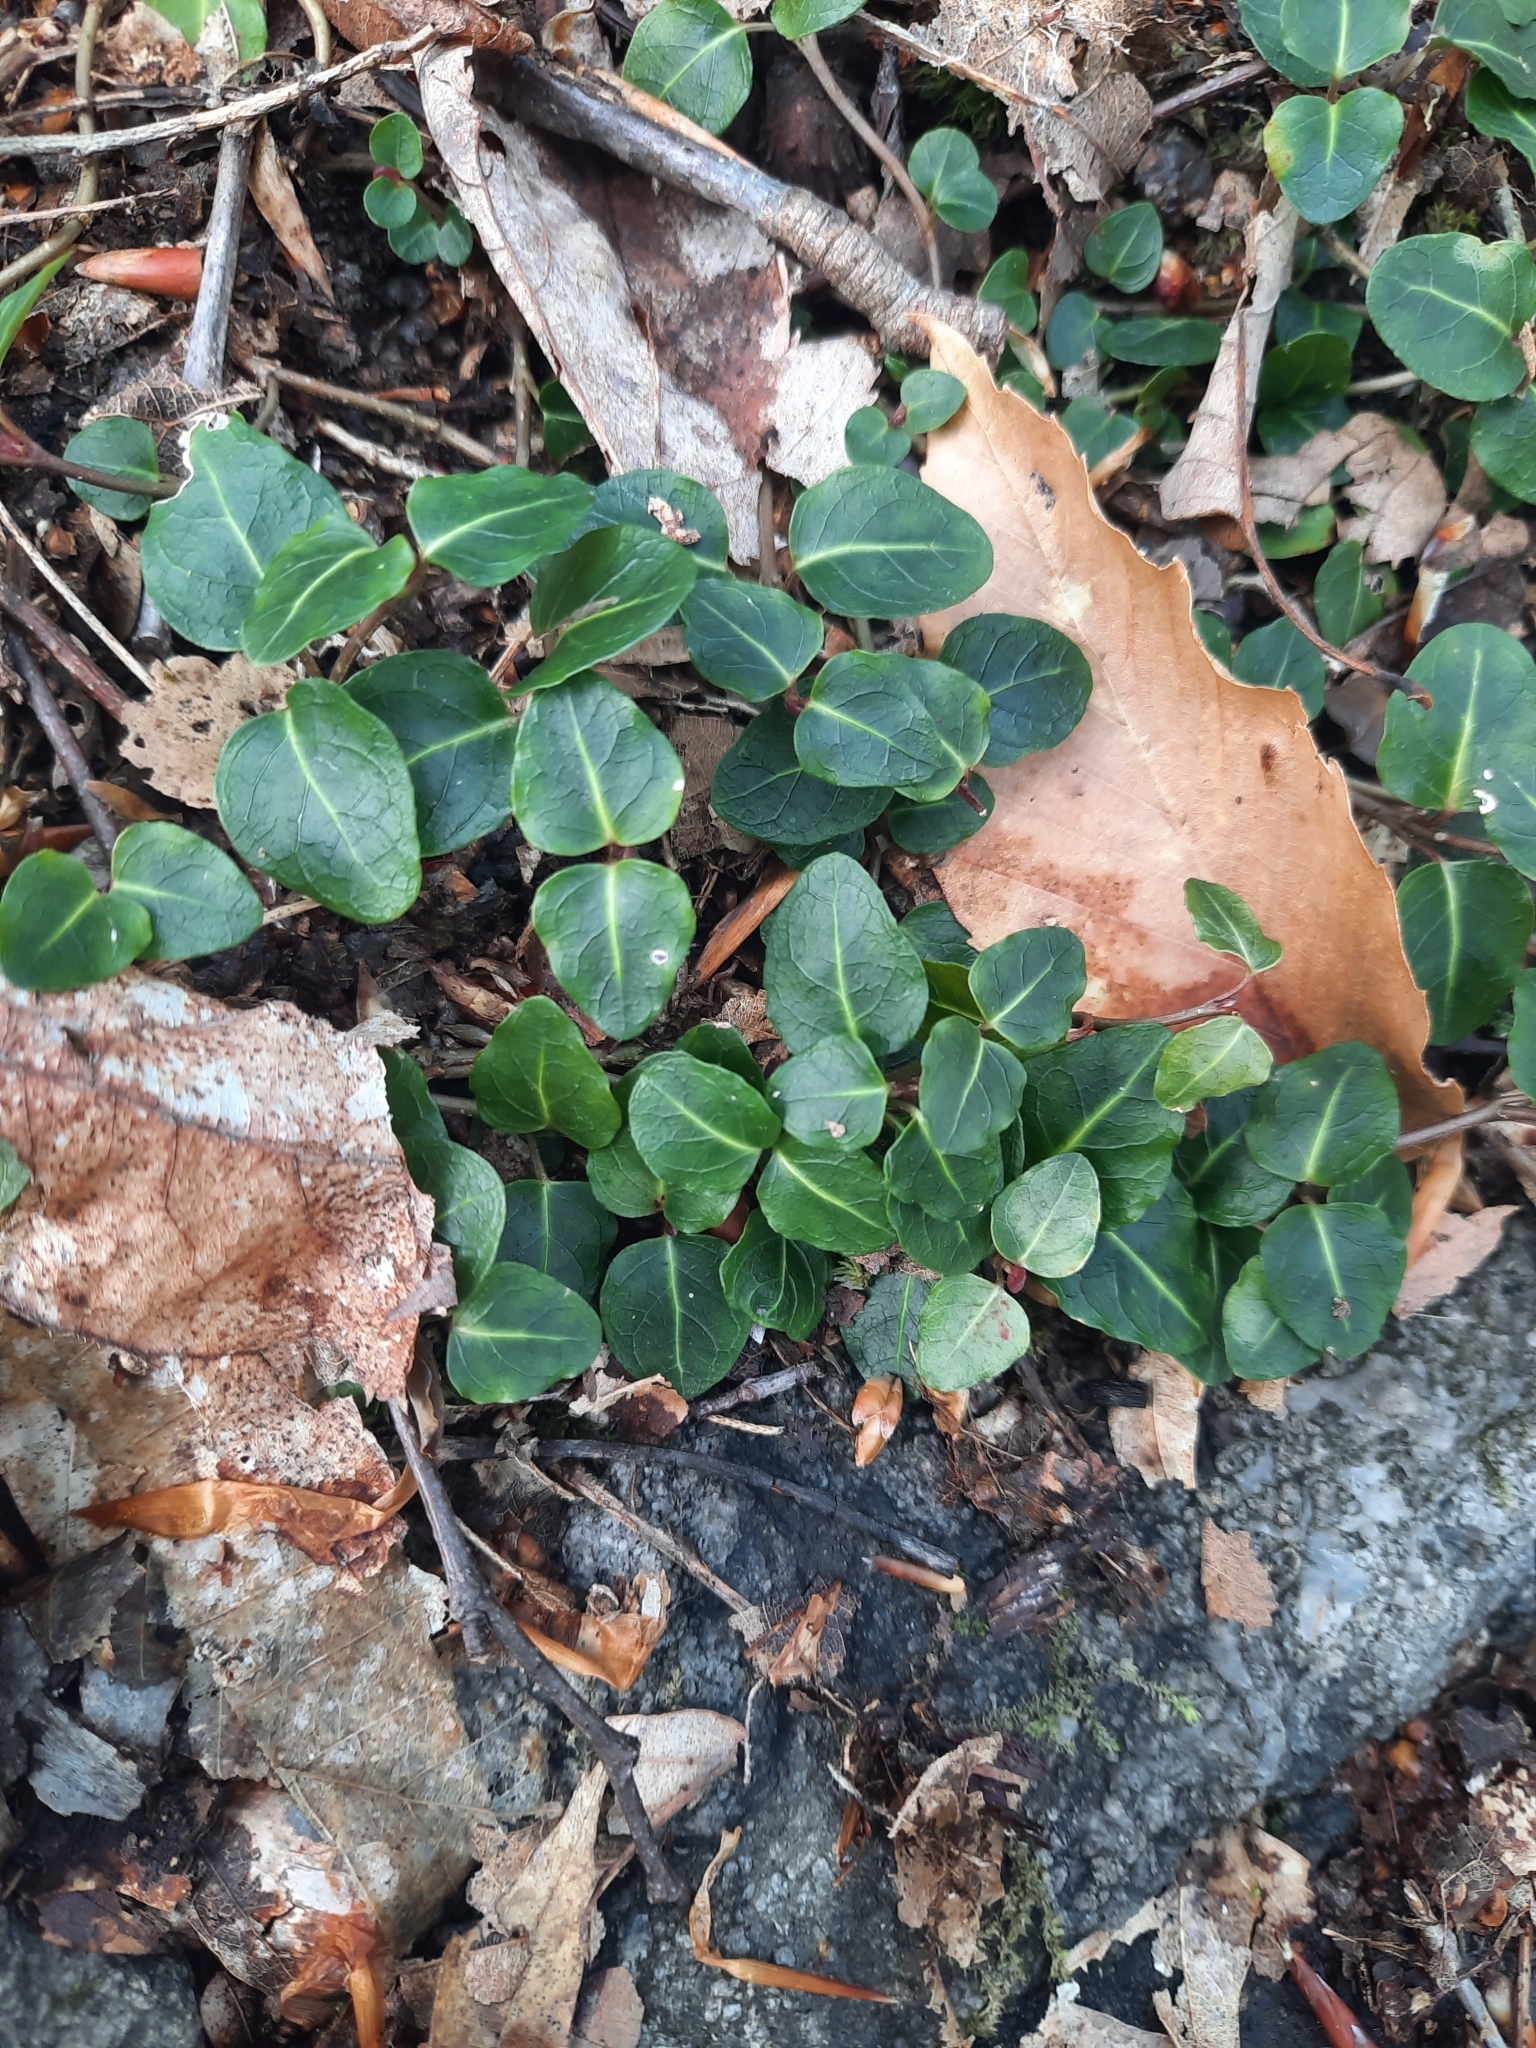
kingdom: Plantae
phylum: Tracheophyta
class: Magnoliopsida
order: Gentianales
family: Rubiaceae
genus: Mitchella
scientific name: Mitchella repens
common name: Partridge-berry
